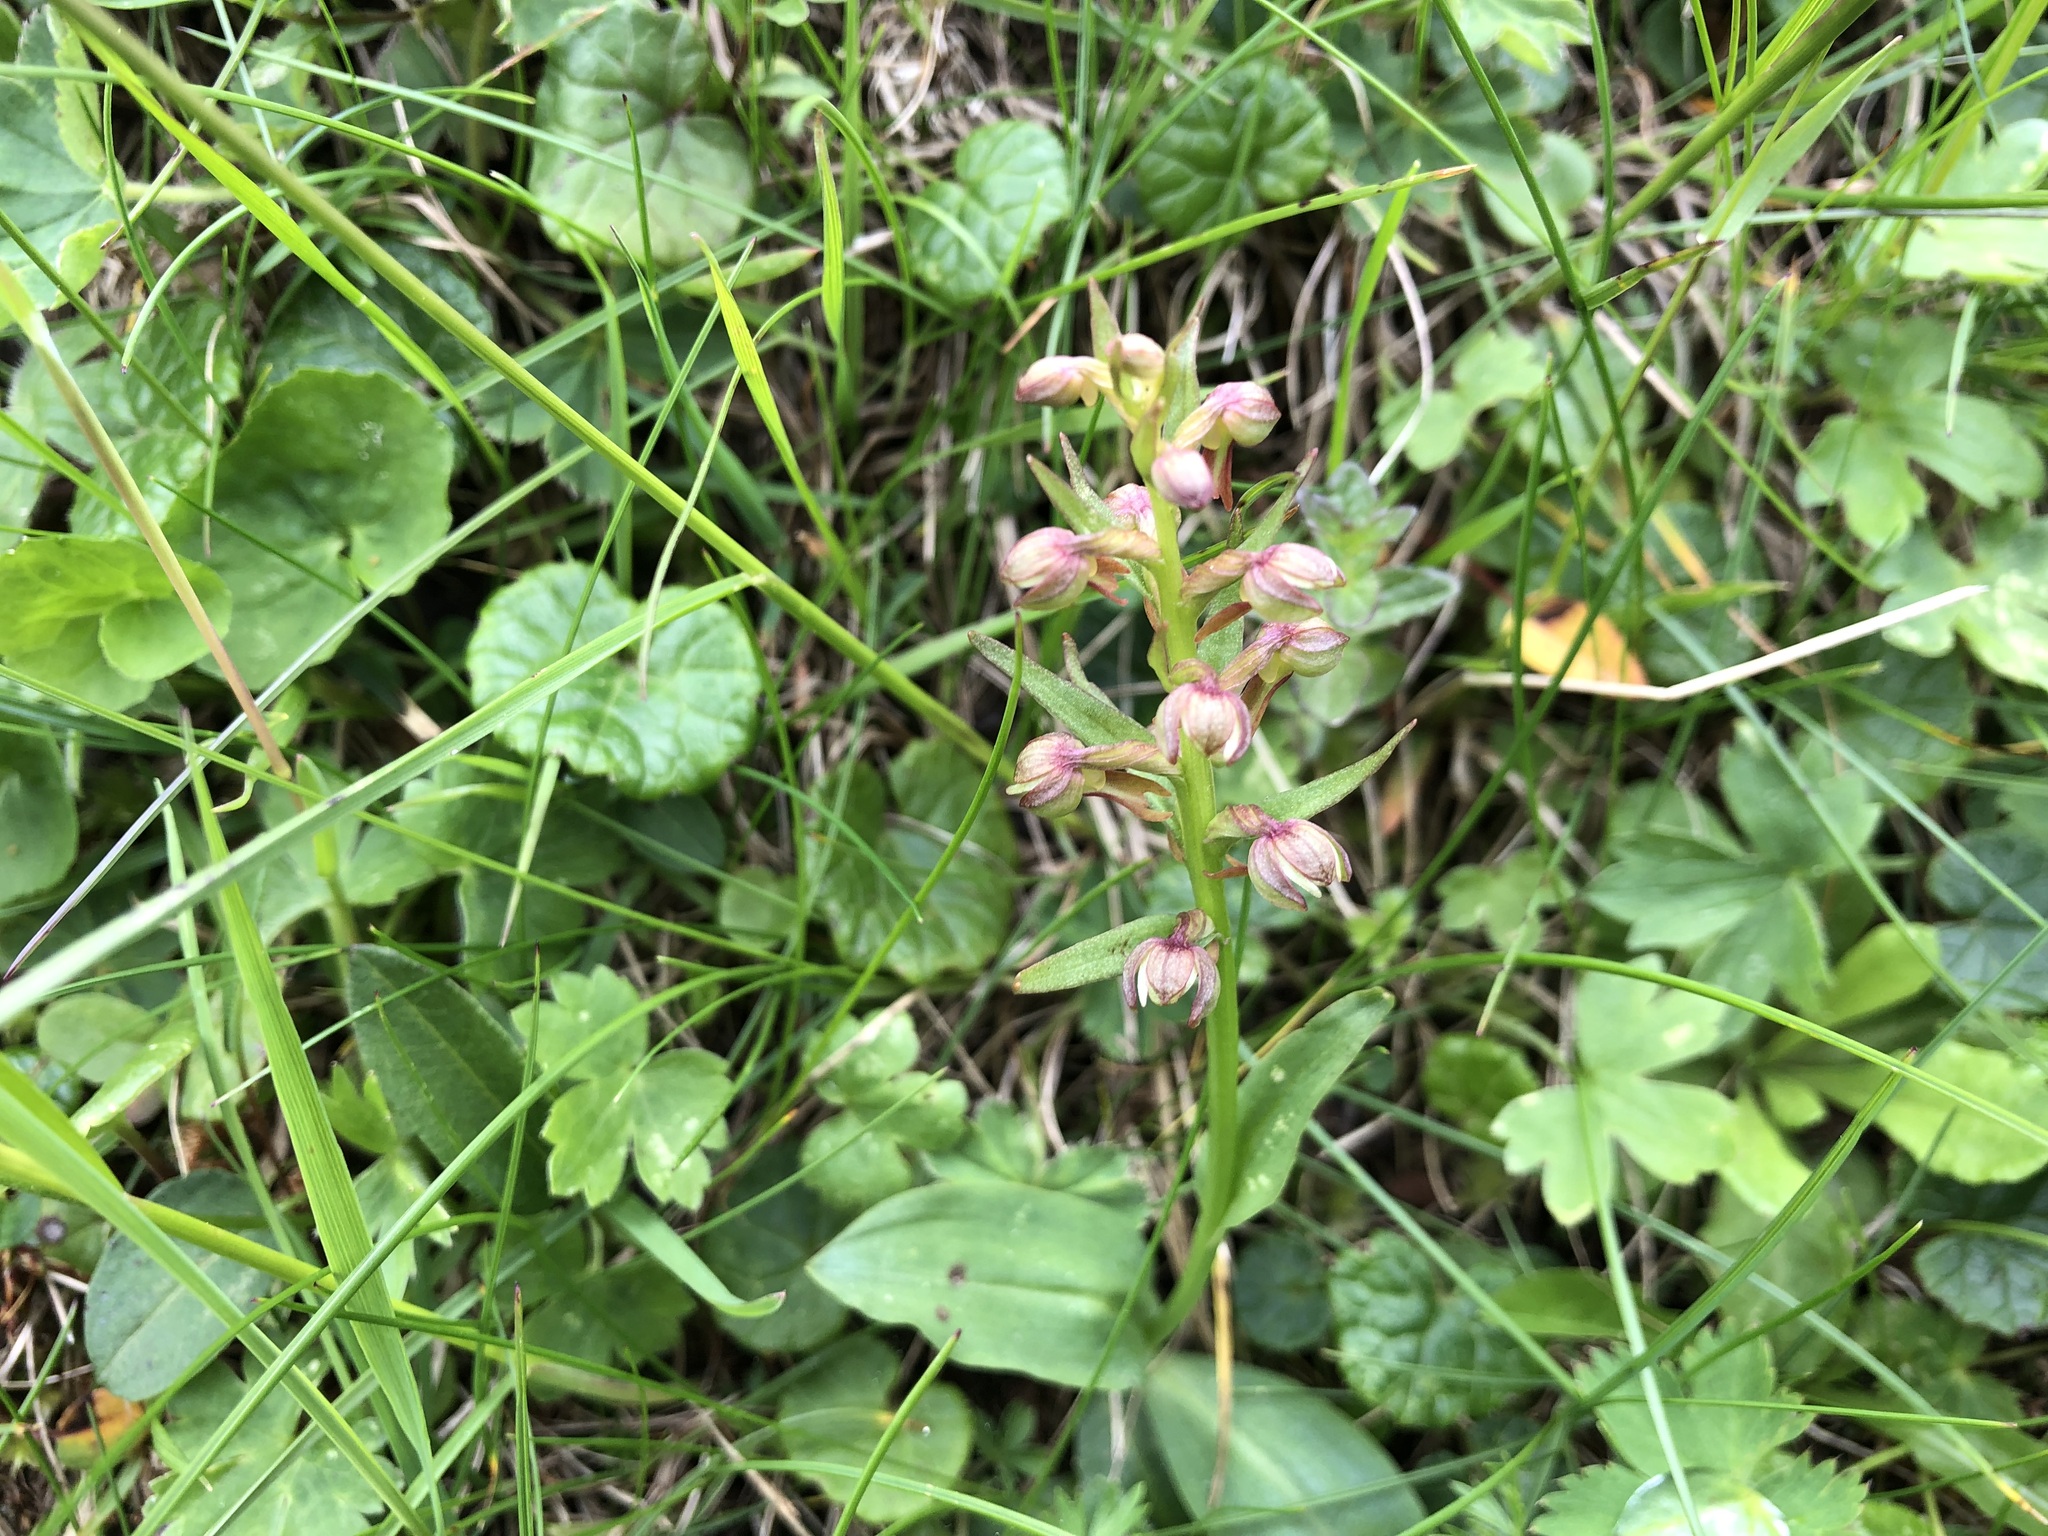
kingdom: Plantae
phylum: Tracheophyta
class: Liliopsida
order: Asparagales
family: Orchidaceae
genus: Dactylorhiza
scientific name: Dactylorhiza viridis
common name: Longbract frog orchid
